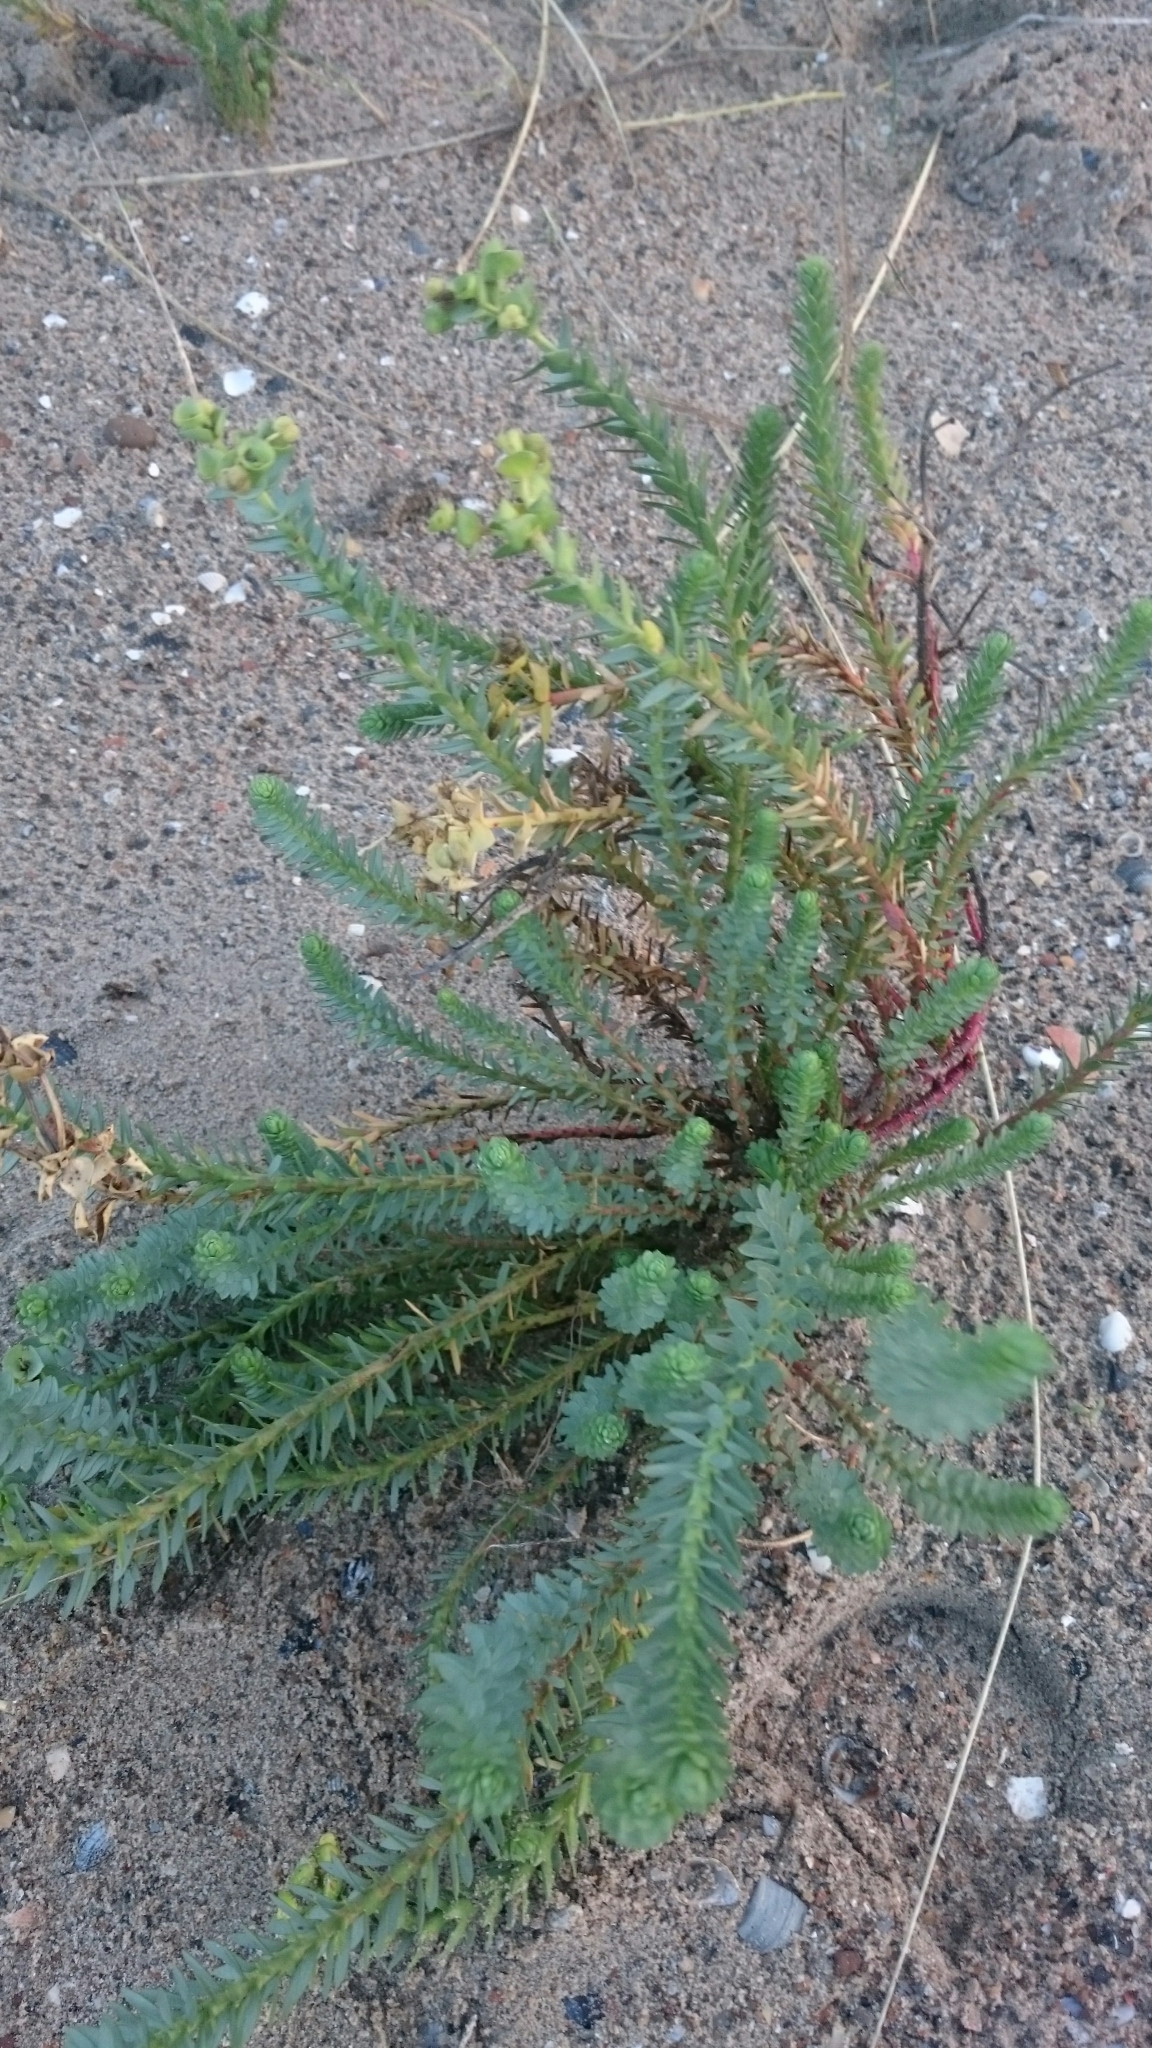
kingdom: Plantae
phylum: Tracheophyta
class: Magnoliopsida
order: Malpighiales
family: Euphorbiaceae
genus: Euphorbia
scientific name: Euphorbia paralias
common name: Sea spurge
